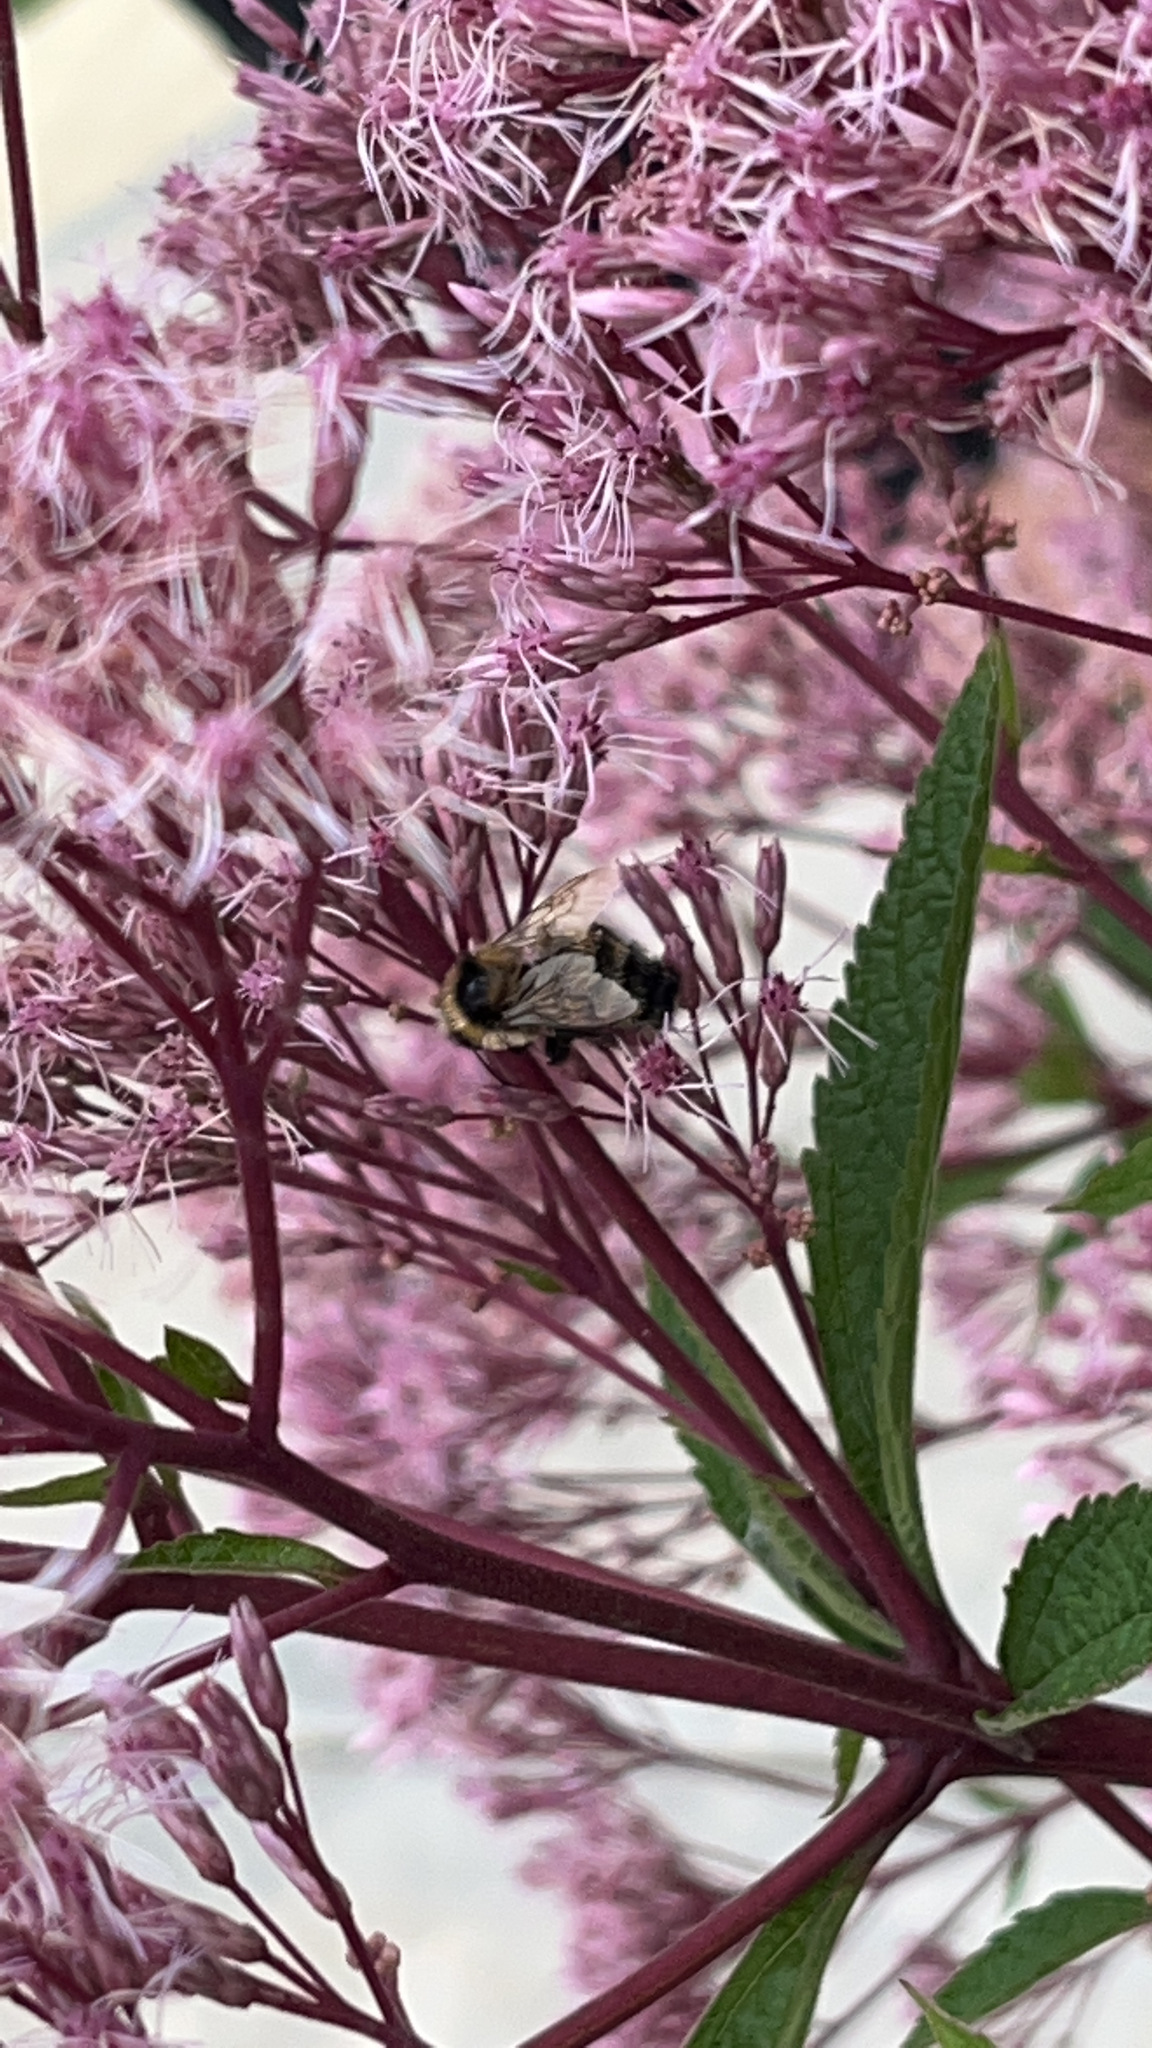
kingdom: Animalia
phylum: Arthropoda
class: Insecta
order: Hymenoptera
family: Apidae
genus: Bombus
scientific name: Bombus rufocinctus
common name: Red-belted bumble bee
